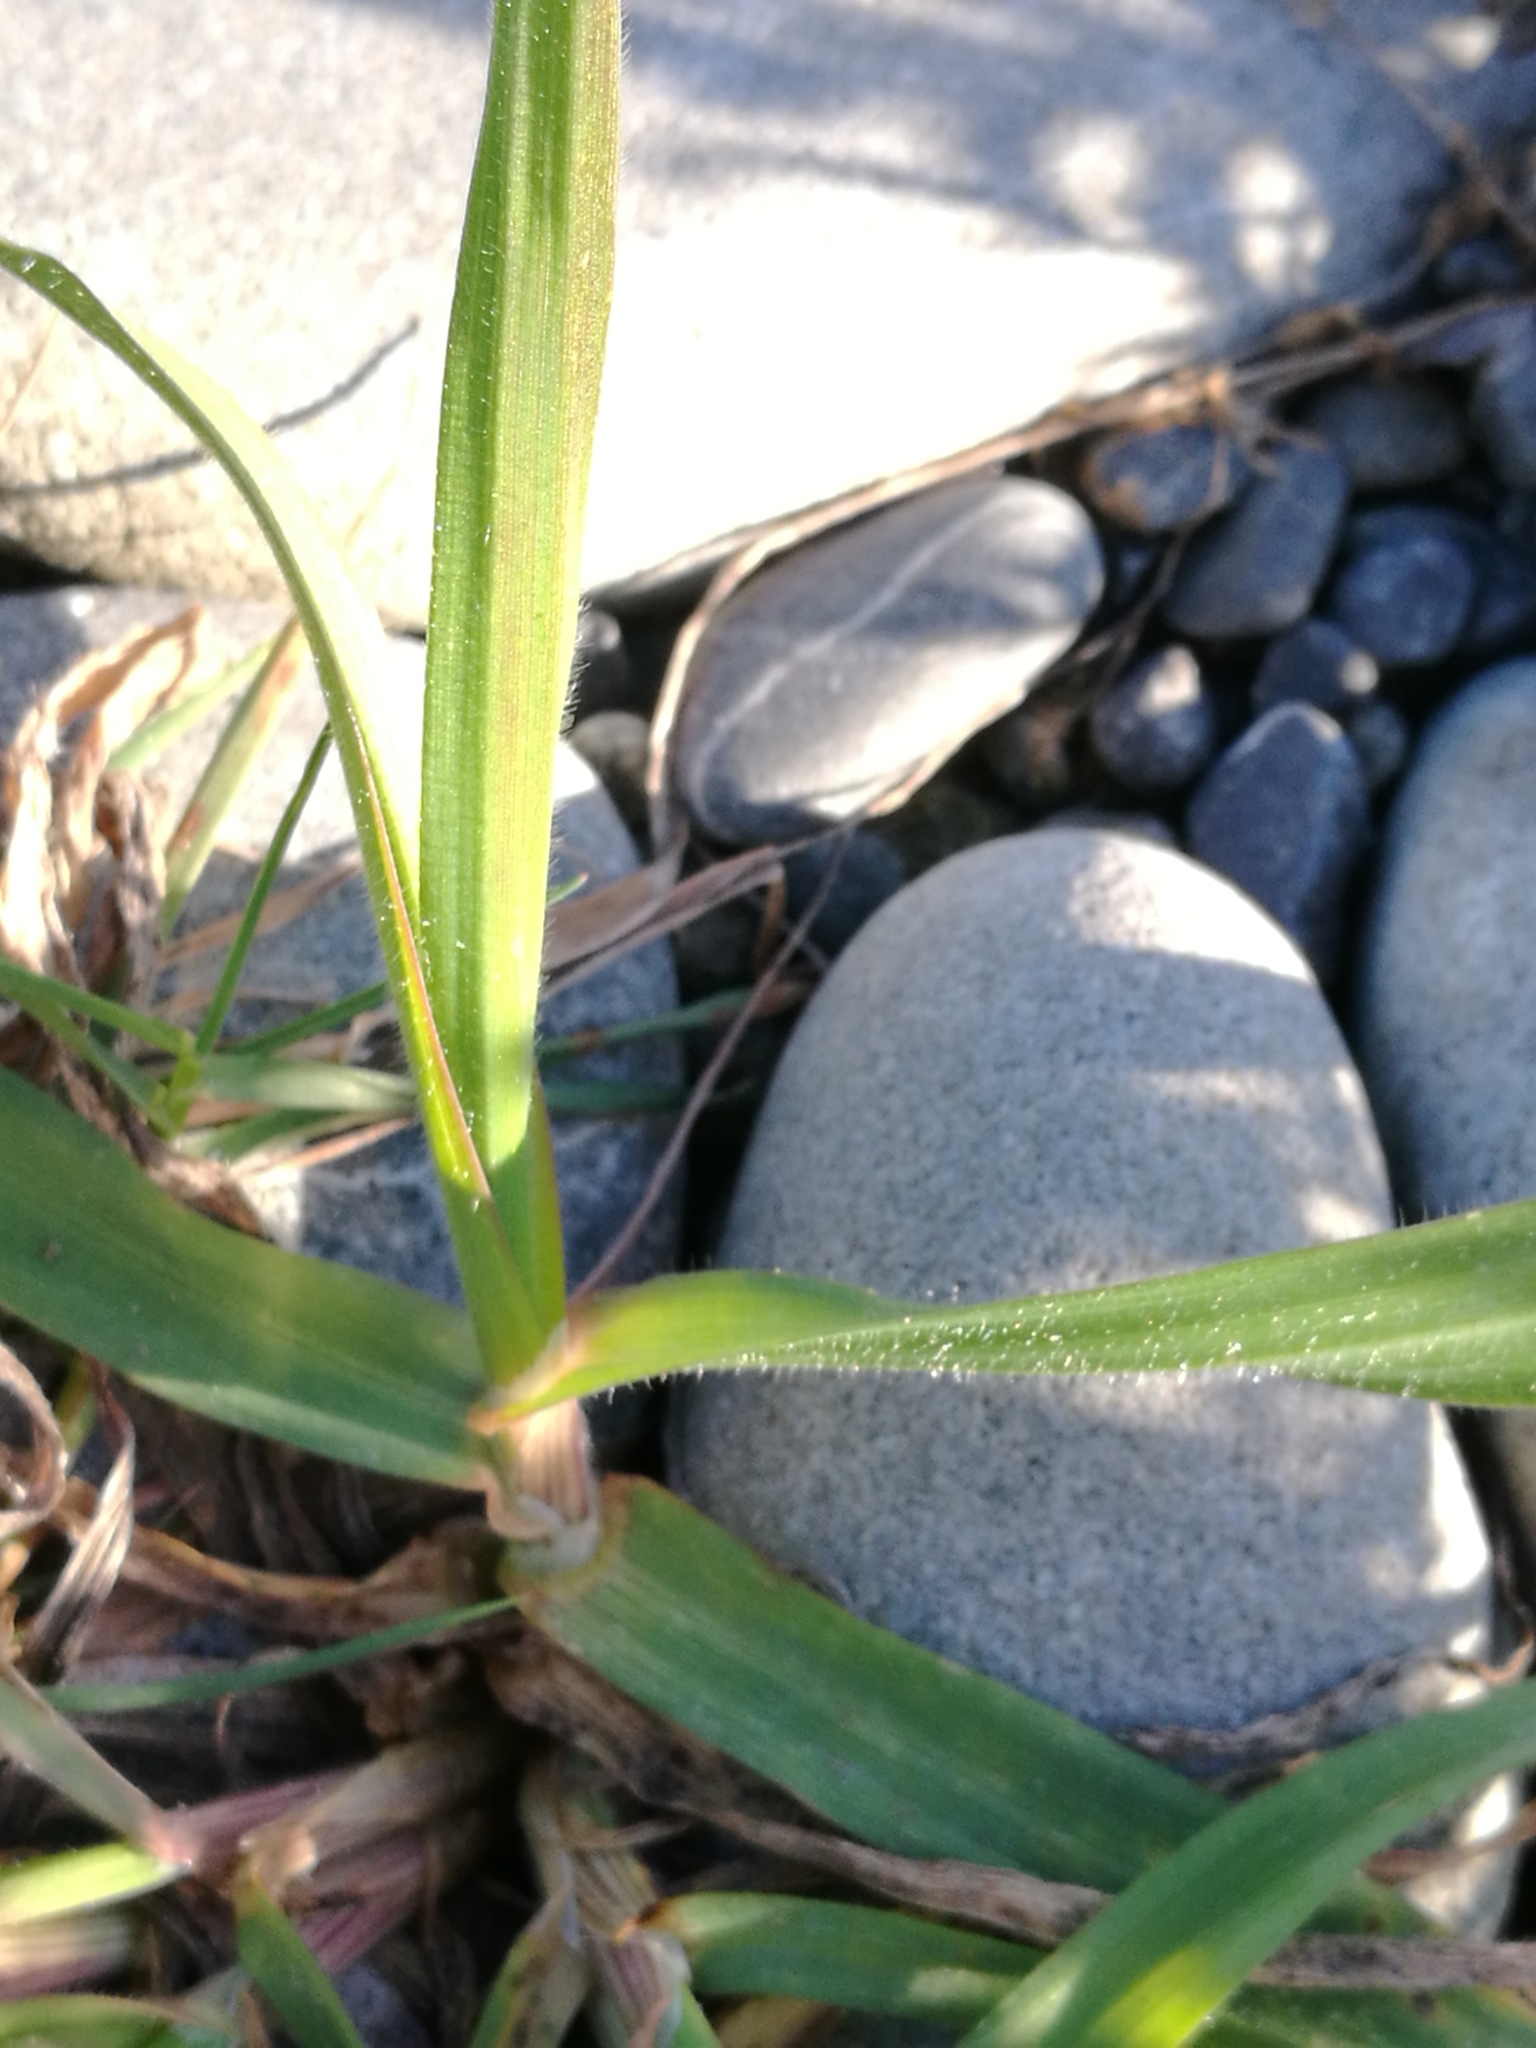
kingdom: Plantae
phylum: Tracheophyta
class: Liliopsida
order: Poales
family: Poaceae
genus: Holcus
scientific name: Holcus lanatus
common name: Yorkshire-fog
